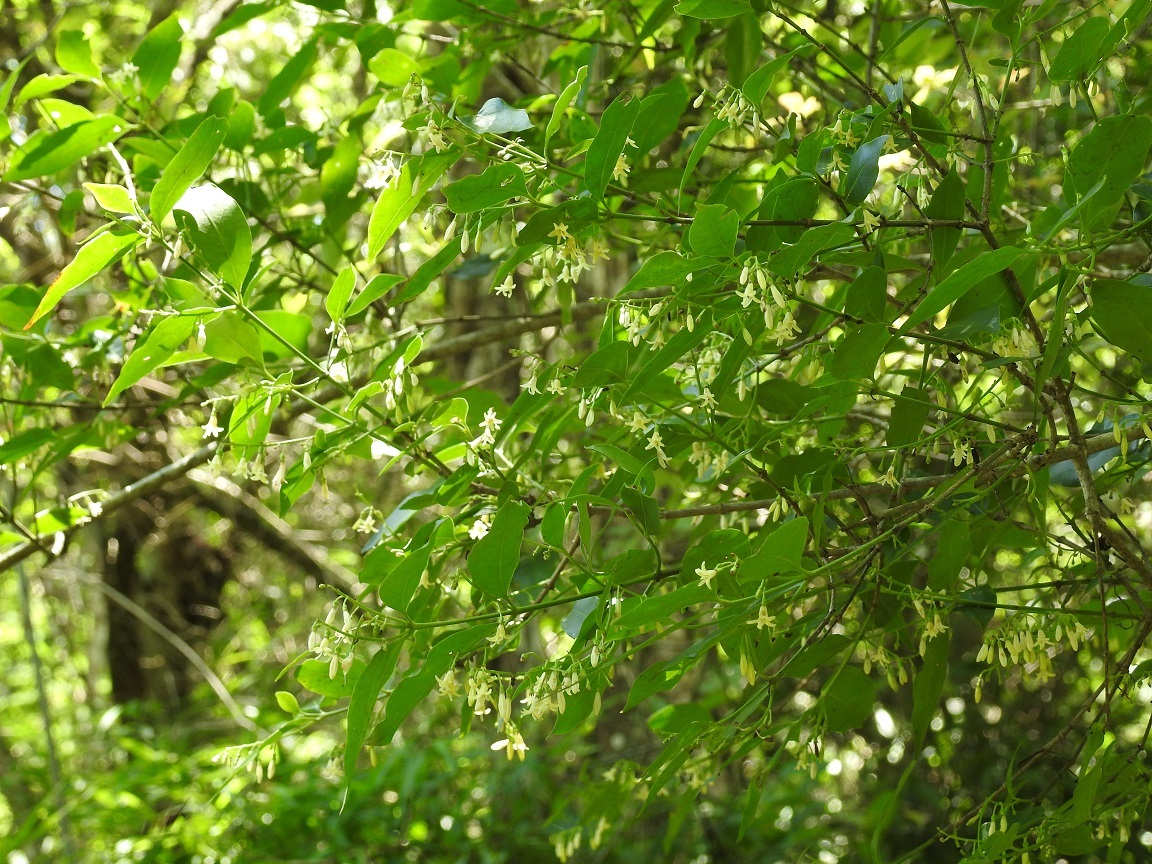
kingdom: Plantae
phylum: Tracheophyta
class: Magnoliopsida
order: Gentianales
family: Rubiaceae
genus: Chiococca
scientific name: Chiococca alba
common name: Snowberry
